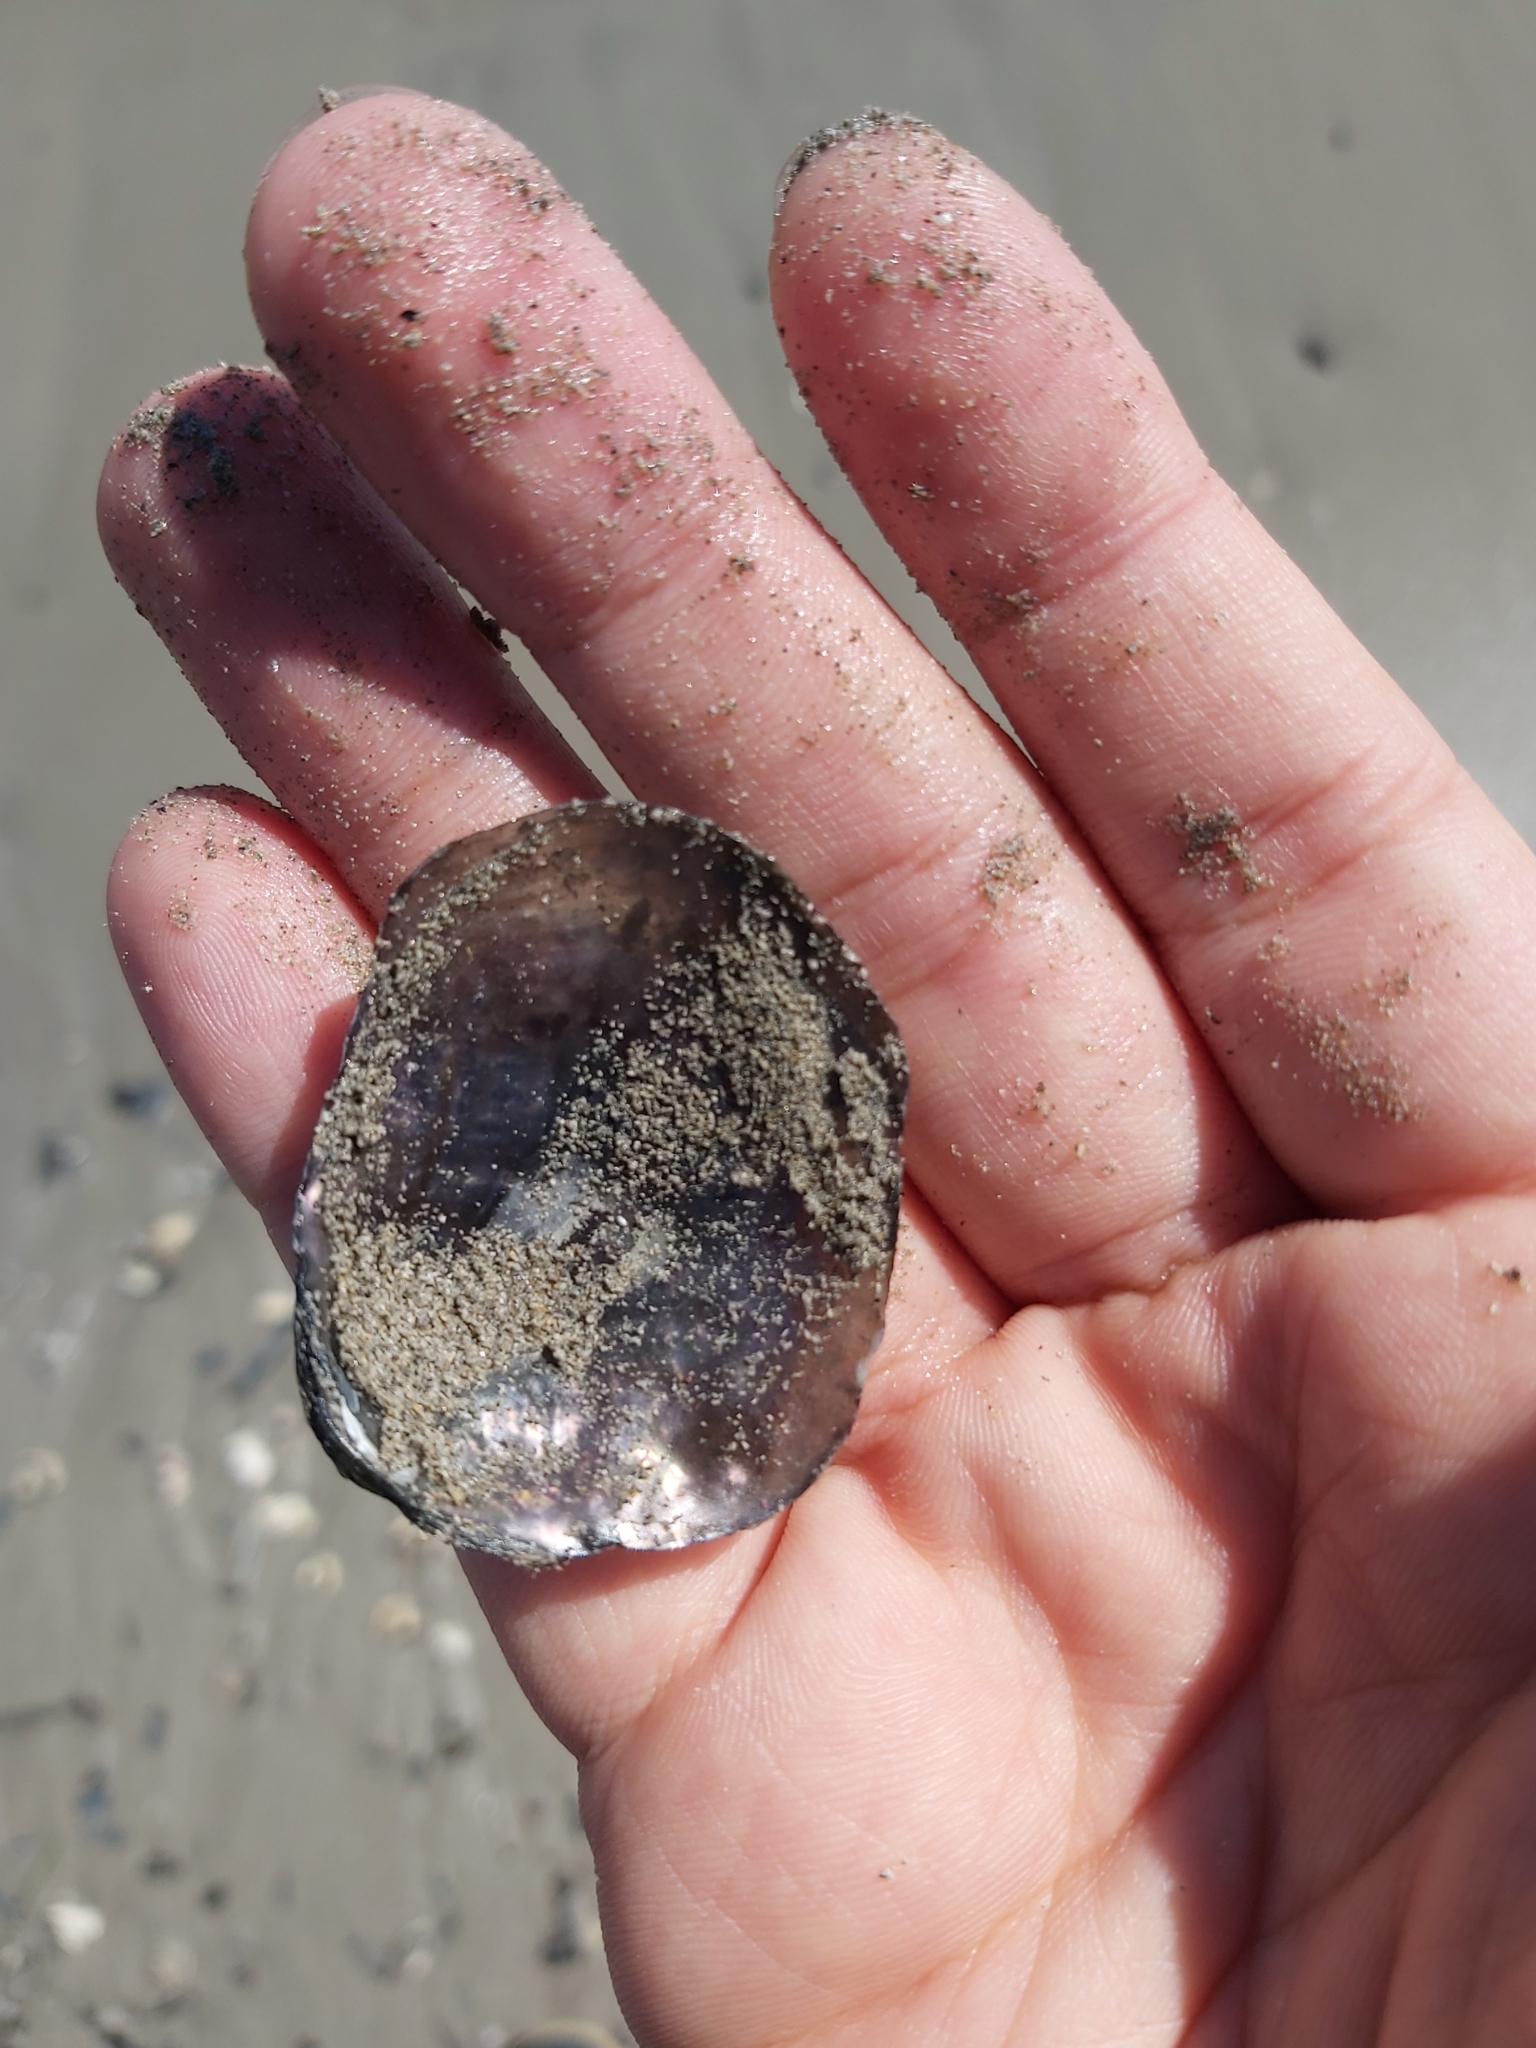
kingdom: Animalia
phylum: Mollusca
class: Bivalvia
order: Pectinida
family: Anomiidae
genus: Anomia
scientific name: Anomia trigonopsis
